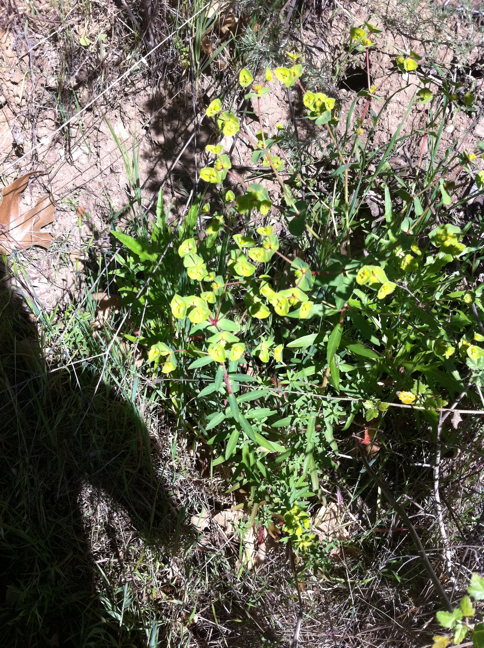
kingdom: Plantae
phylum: Tracheophyta
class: Magnoliopsida
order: Malpighiales
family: Euphorbiaceae
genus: Euphorbia
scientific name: Euphorbia terracina
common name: Geraldton carnation weed
